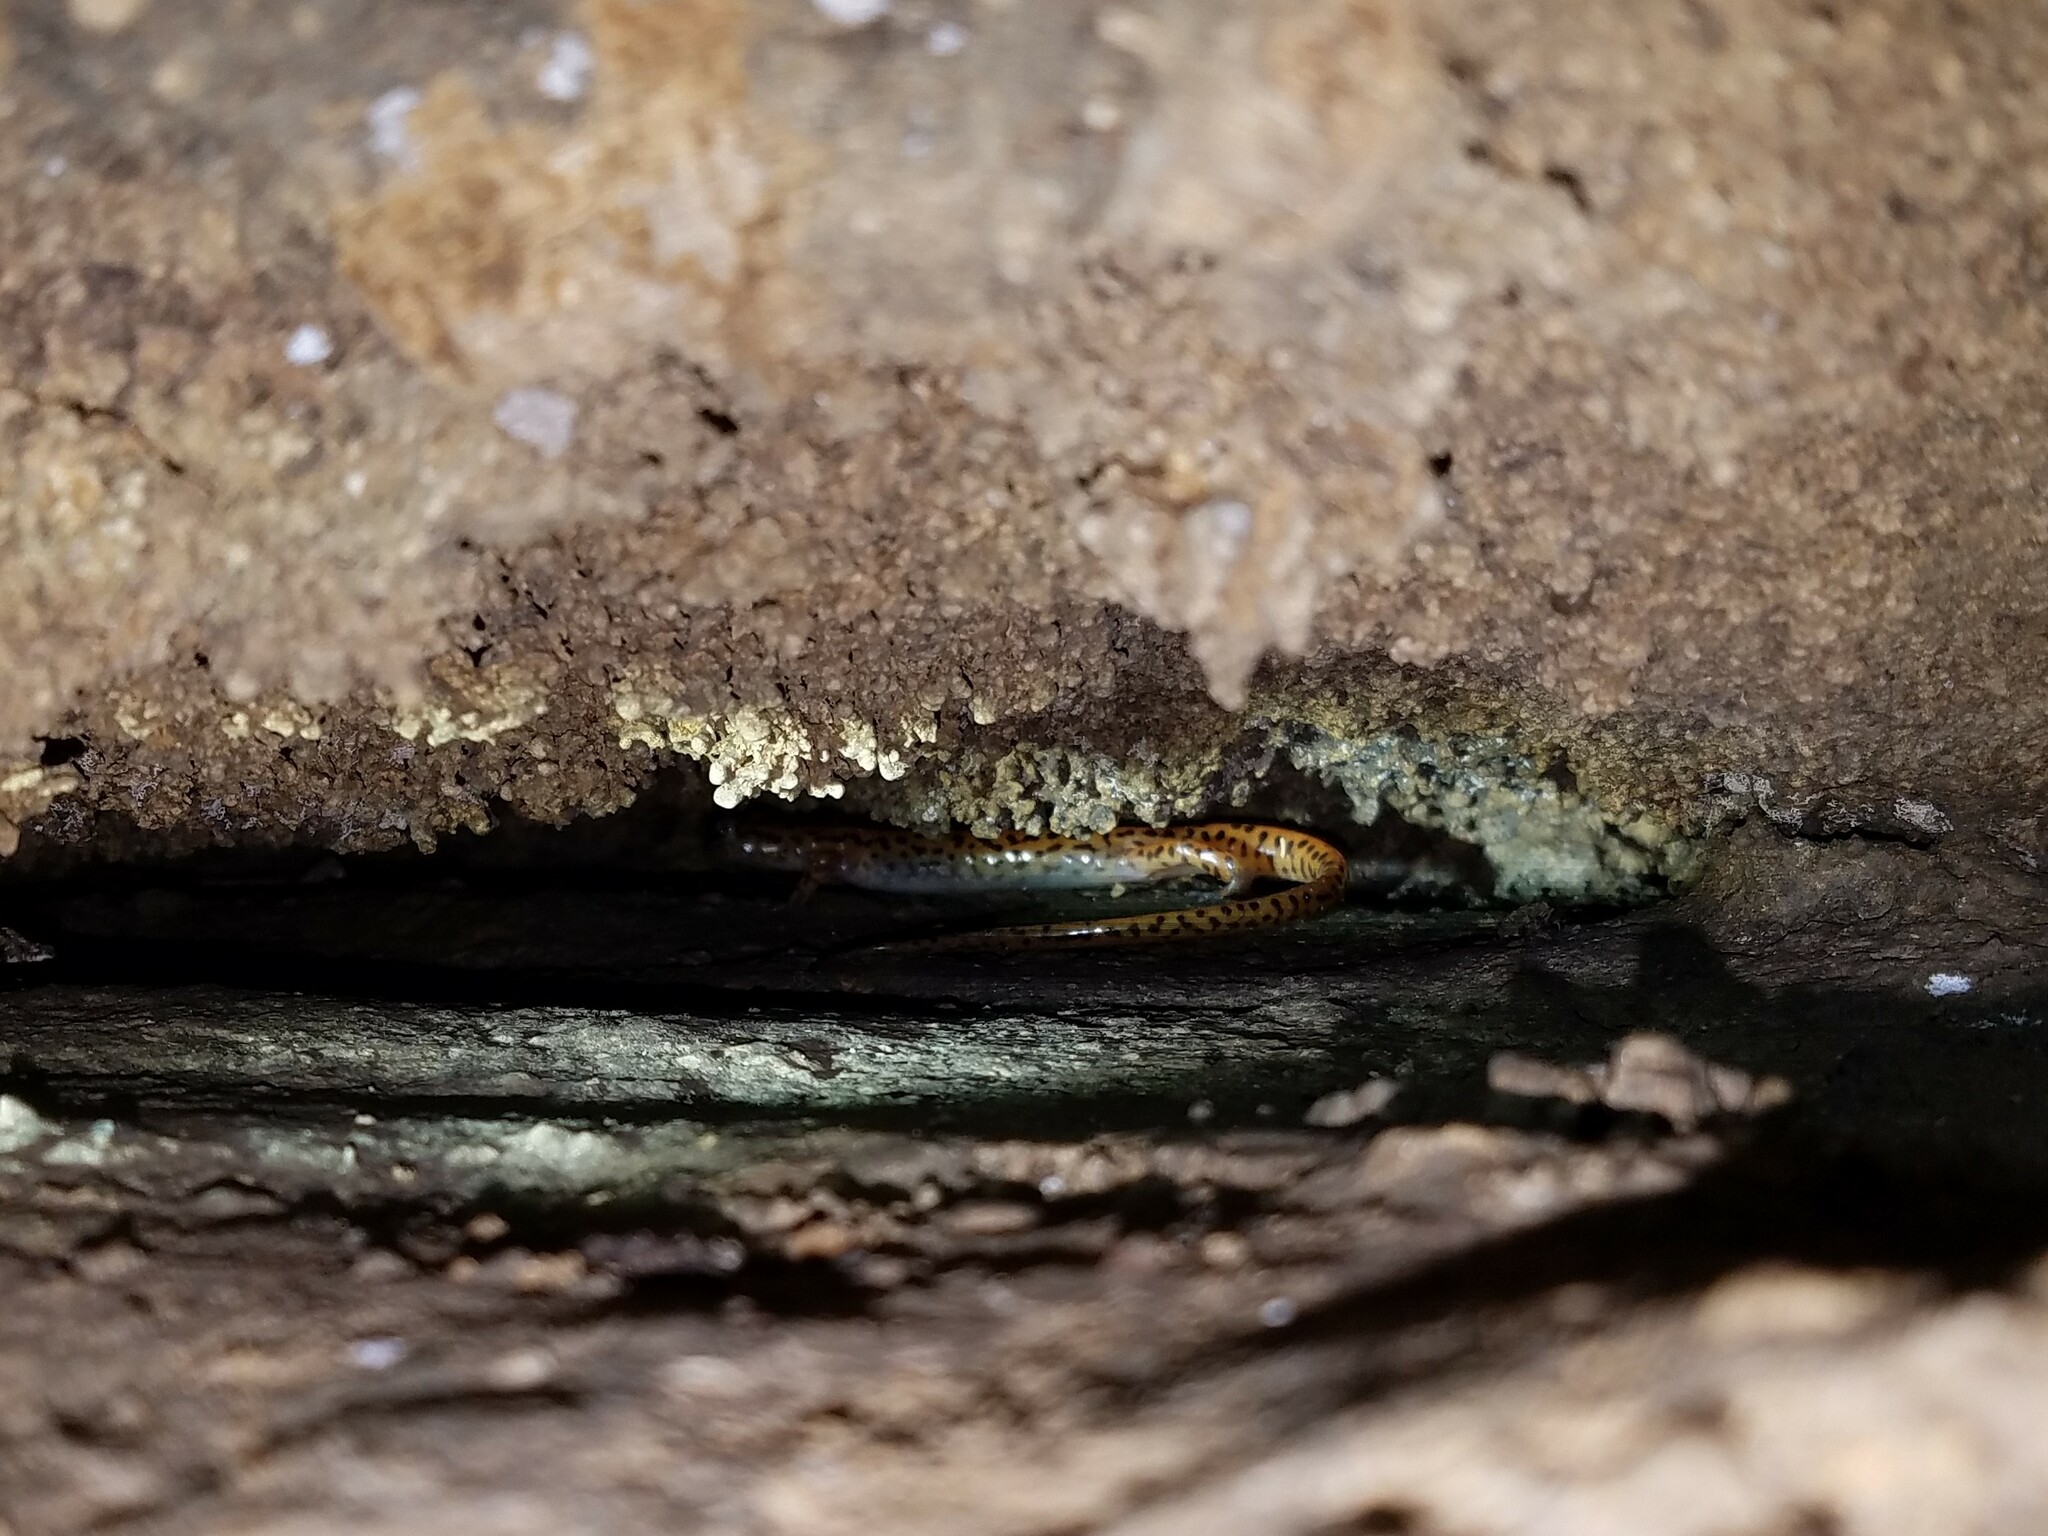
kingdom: Animalia
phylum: Chordata
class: Amphibia
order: Caudata
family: Plethodontidae
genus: Eurycea
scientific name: Eurycea lucifuga
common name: Cave salamander
